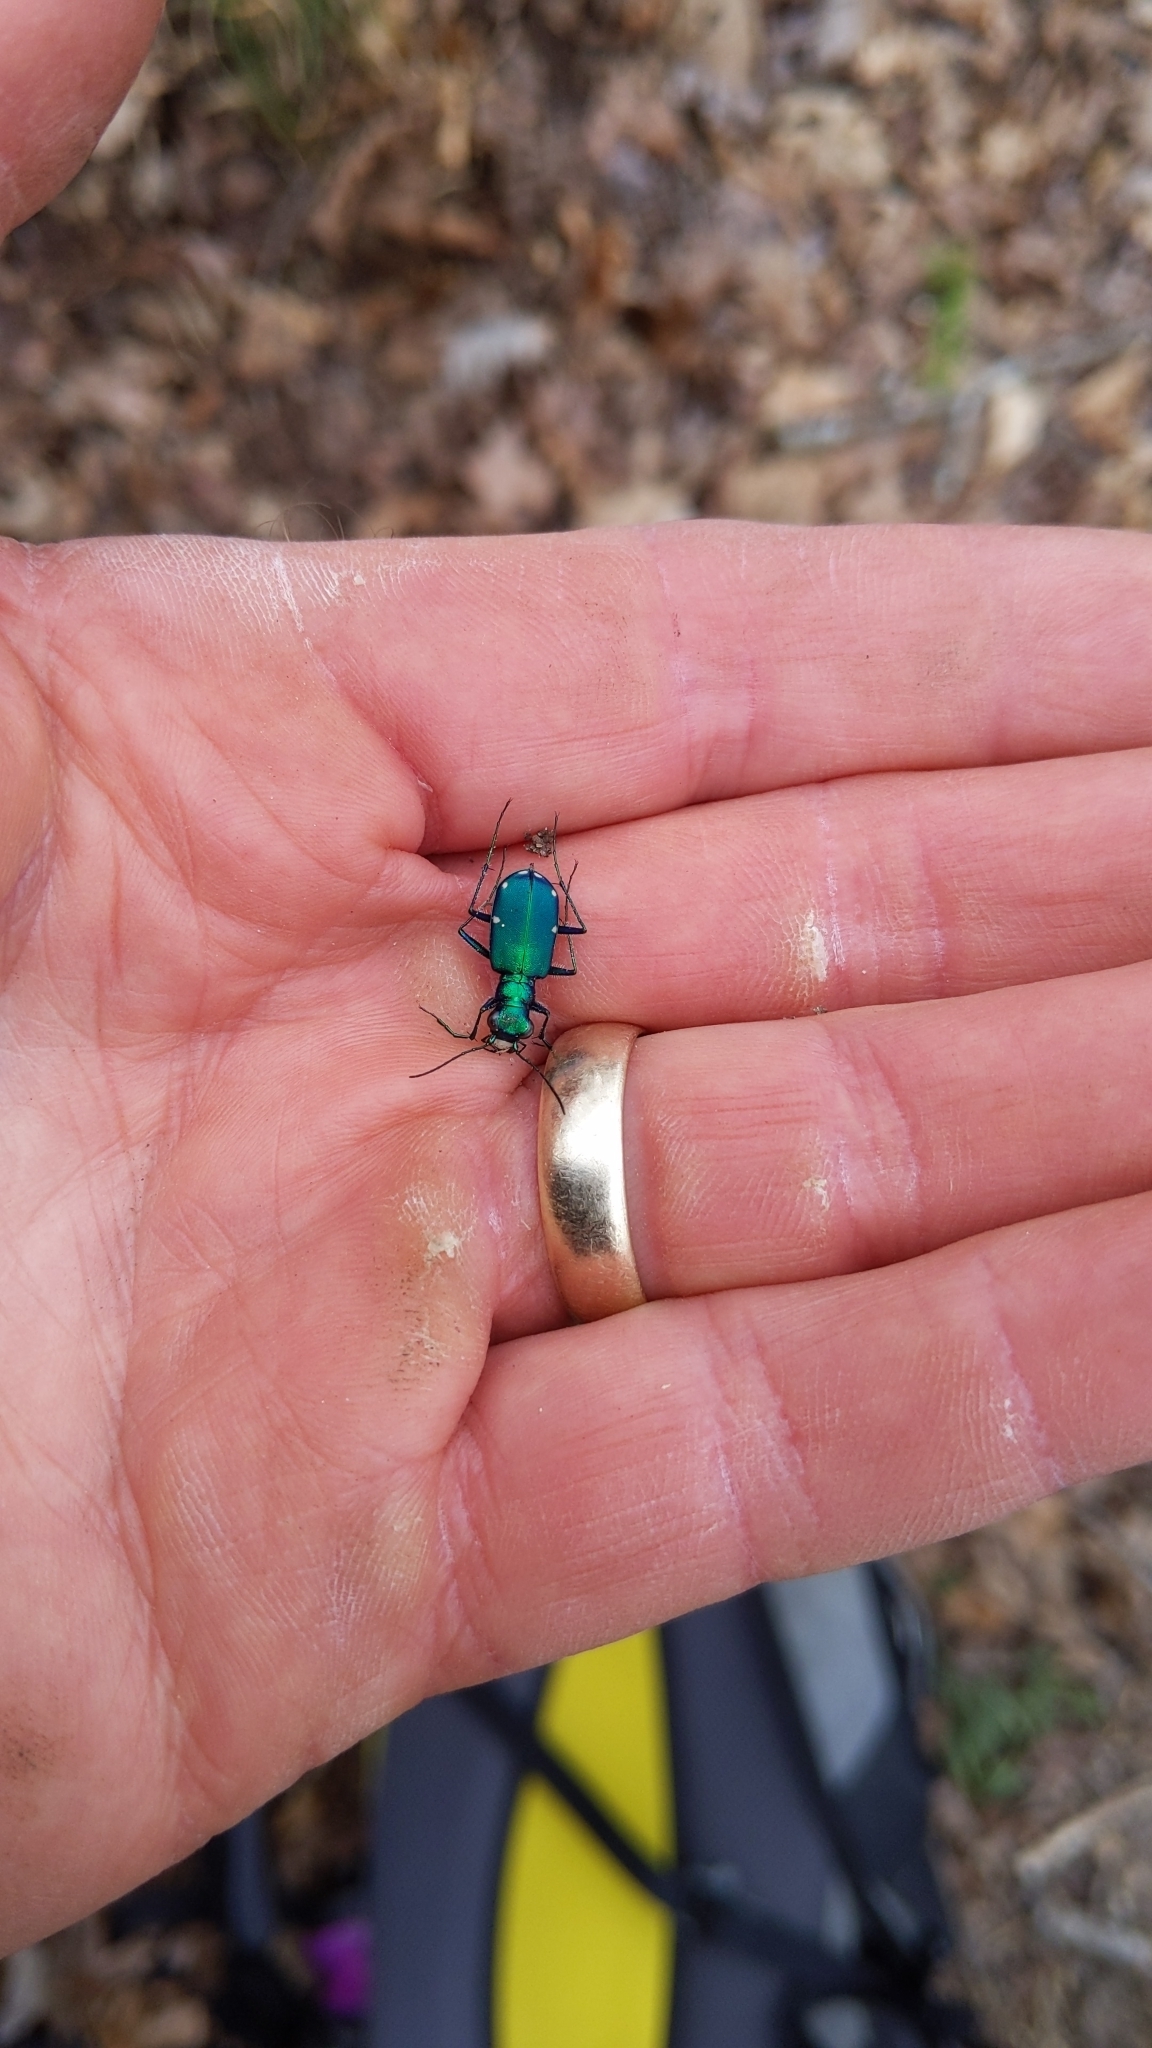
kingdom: Animalia
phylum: Arthropoda
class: Insecta
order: Coleoptera
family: Carabidae
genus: Cicindela
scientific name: Cicindela sexguttata
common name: Six-spotted tiger beetle
